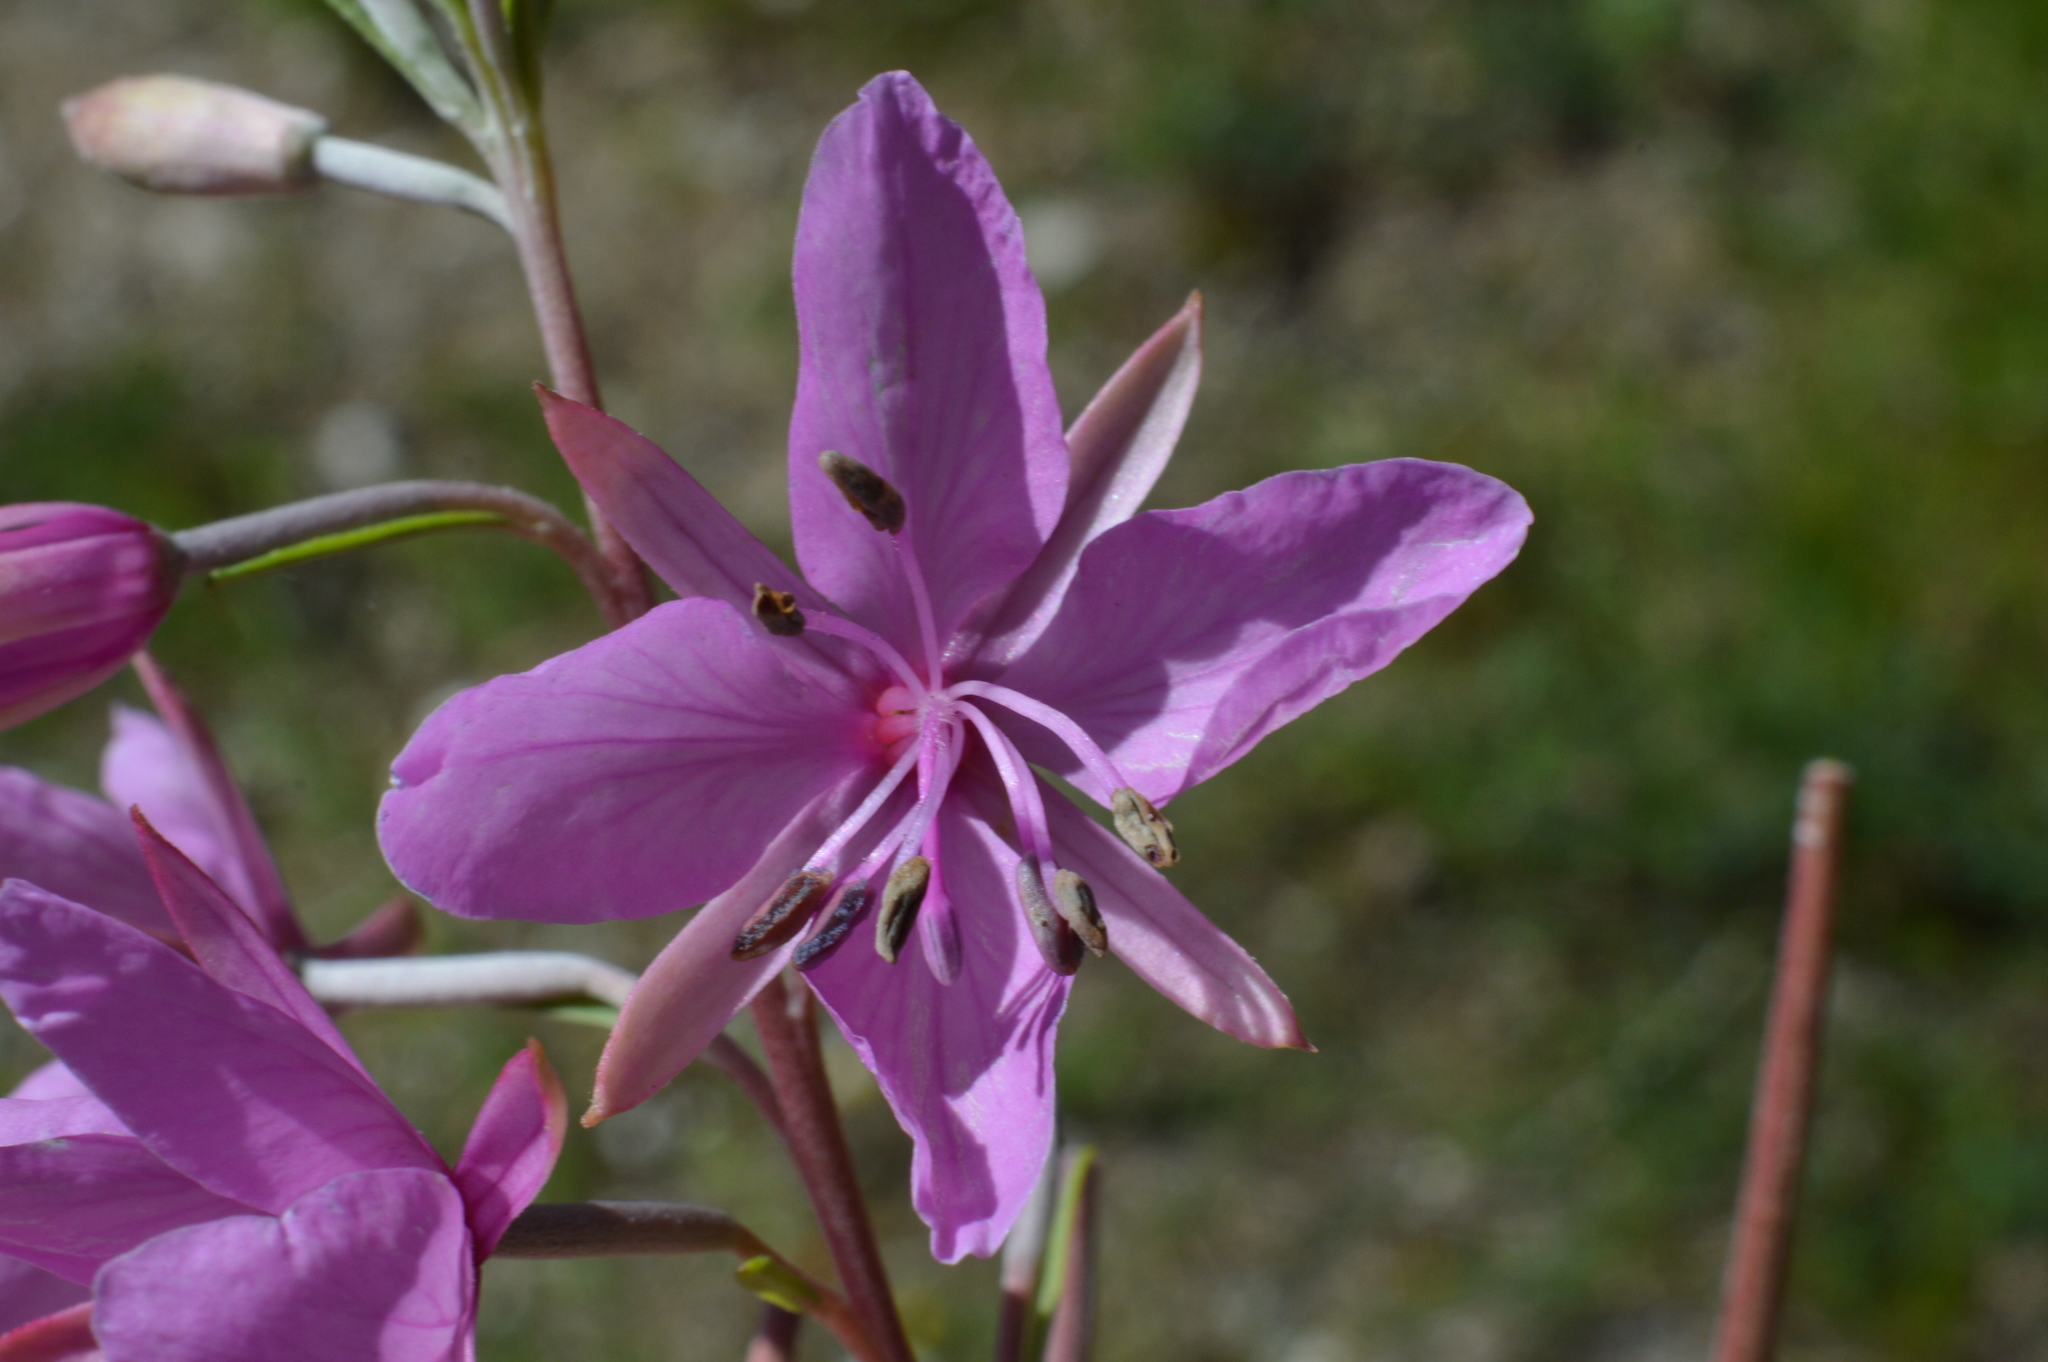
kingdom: Plantae
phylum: Tracheophyta
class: Magnoliopsida
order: Myrtales
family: Onagraceae
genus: Chamaenerion
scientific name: Chamaenerion dodonaei
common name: Rosemary-leaved willowherb
